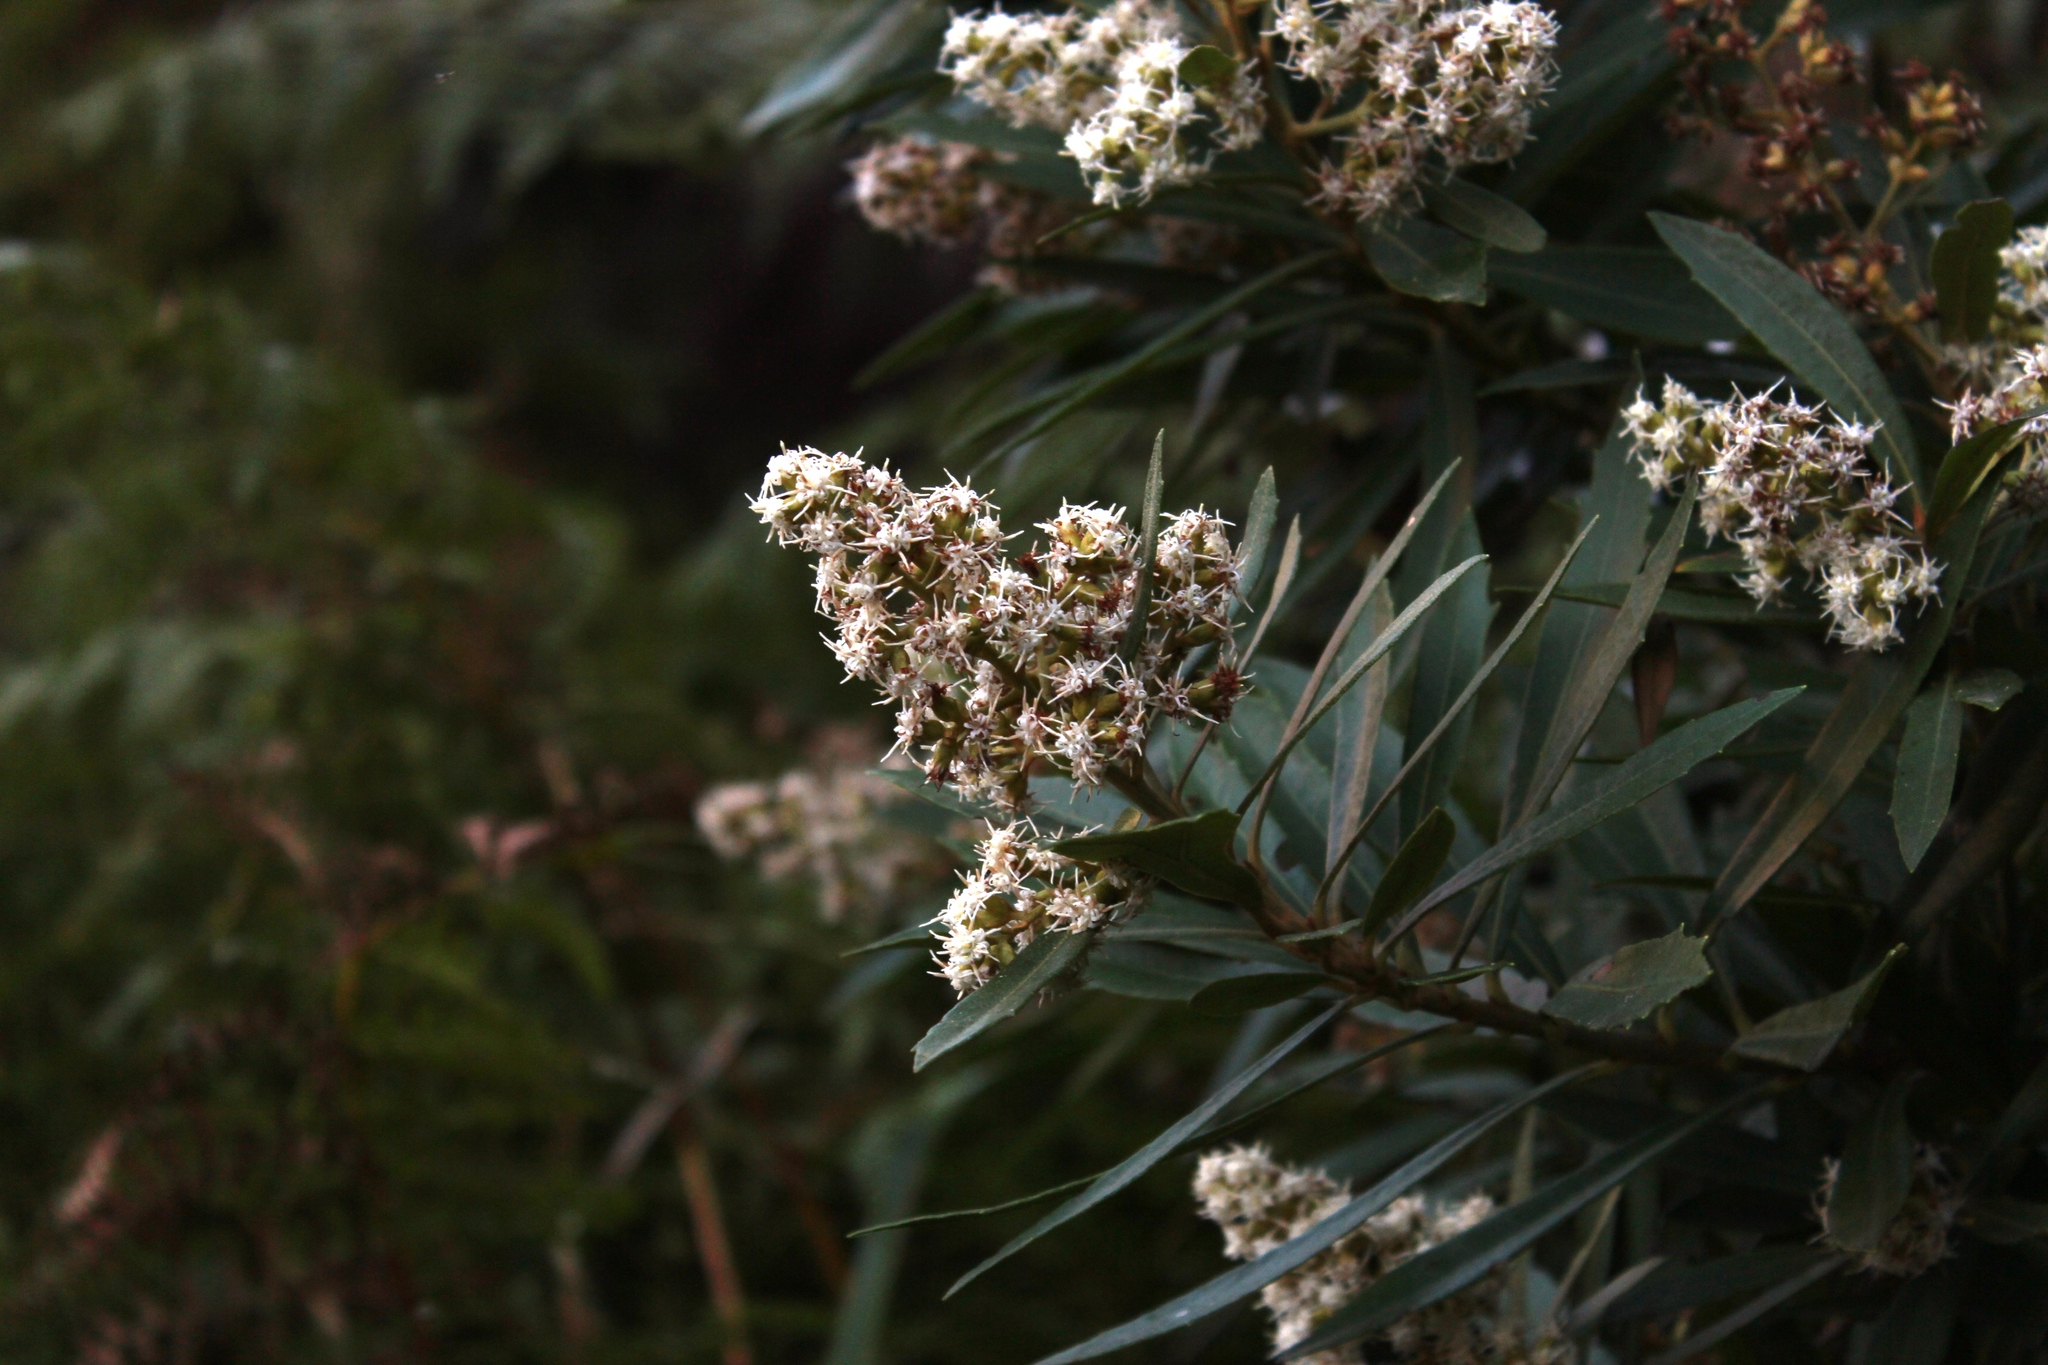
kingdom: Plantae
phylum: Tracheophyta
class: Magnoliopsida
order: Asterales
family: Asteraceae
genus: Brachylaena
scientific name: Brachylaena neriifolia
